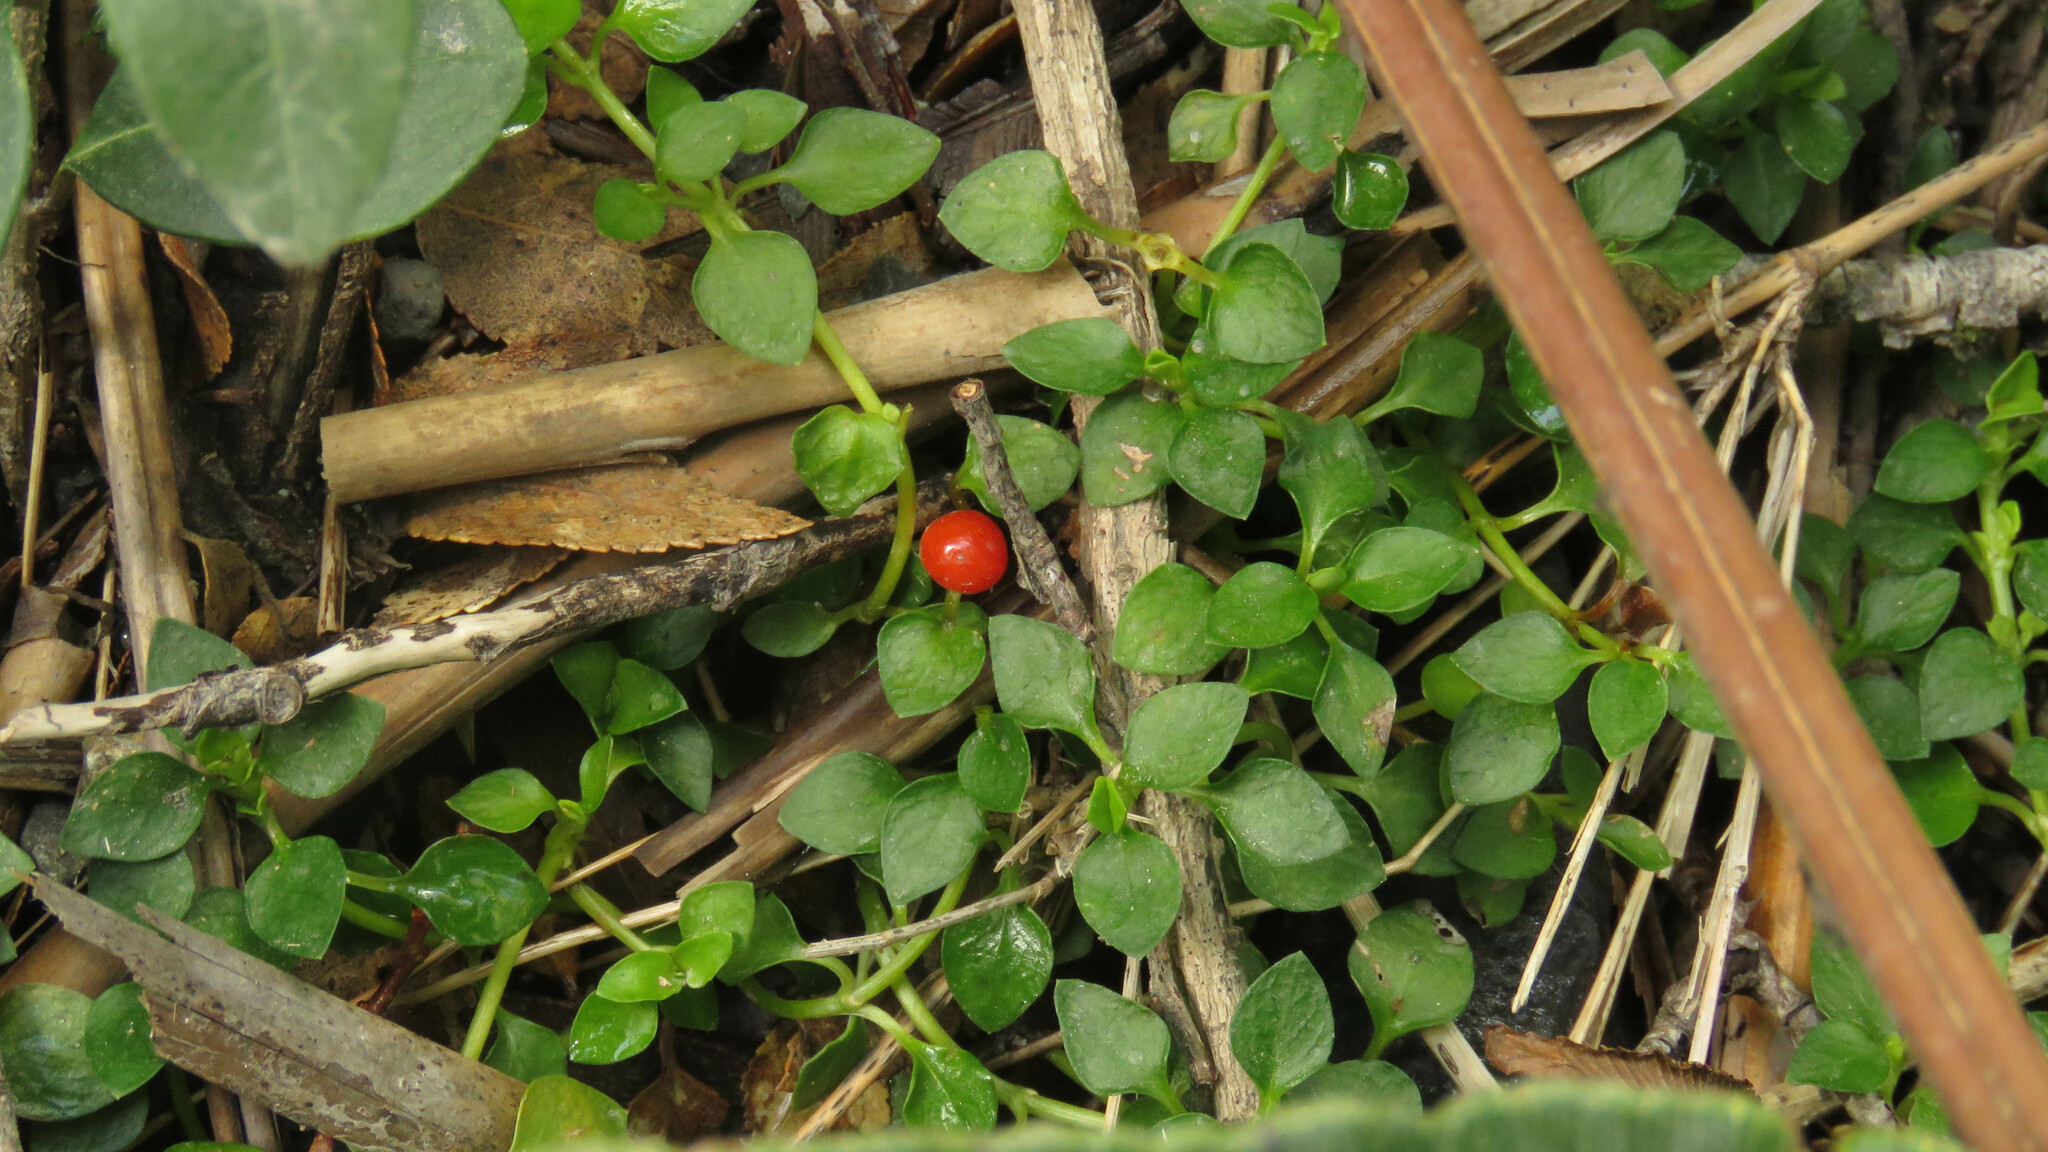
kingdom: Plantae
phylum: Tracheophyta
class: Magnoliopsida
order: Gentianales
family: Rubiaceae
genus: Nertera
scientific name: Nertera granadensis
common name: Beadplant
